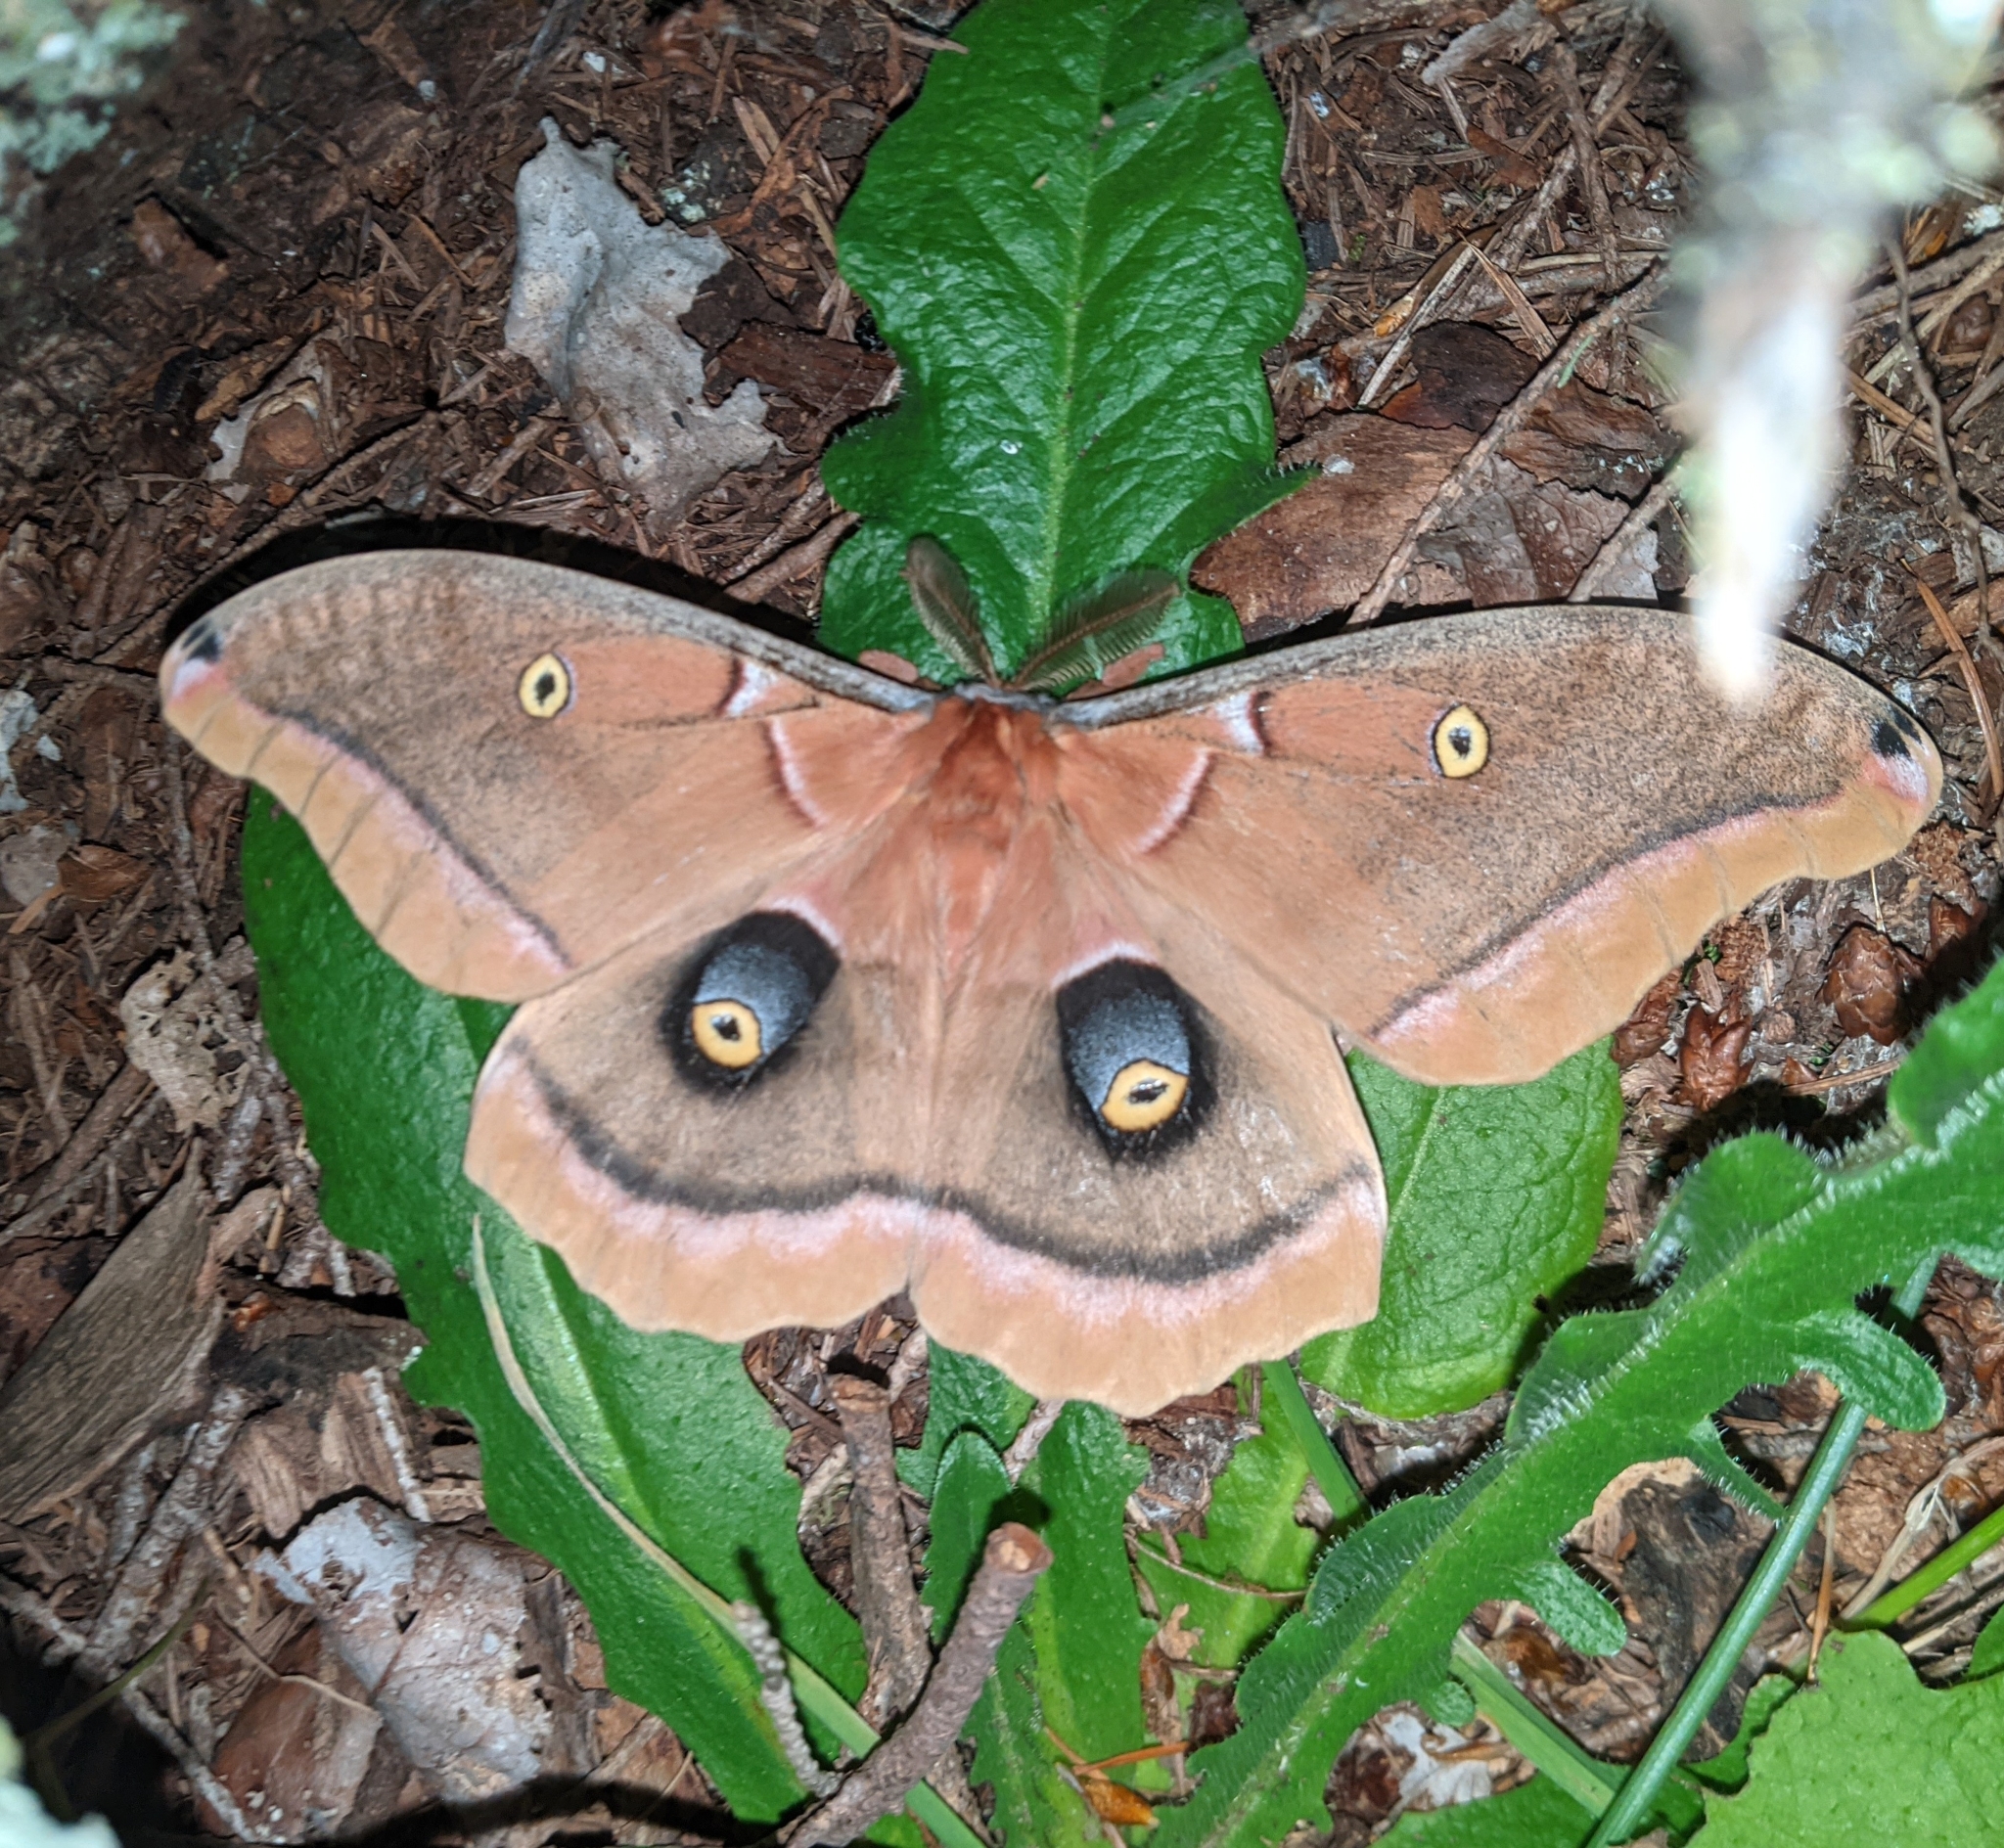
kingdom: Animalia
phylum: Arthropoda
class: Insecta
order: Lepidoptera
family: Saturniidae
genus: Antheraea
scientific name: Antheraea polyphemus
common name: Polyphemus moth
